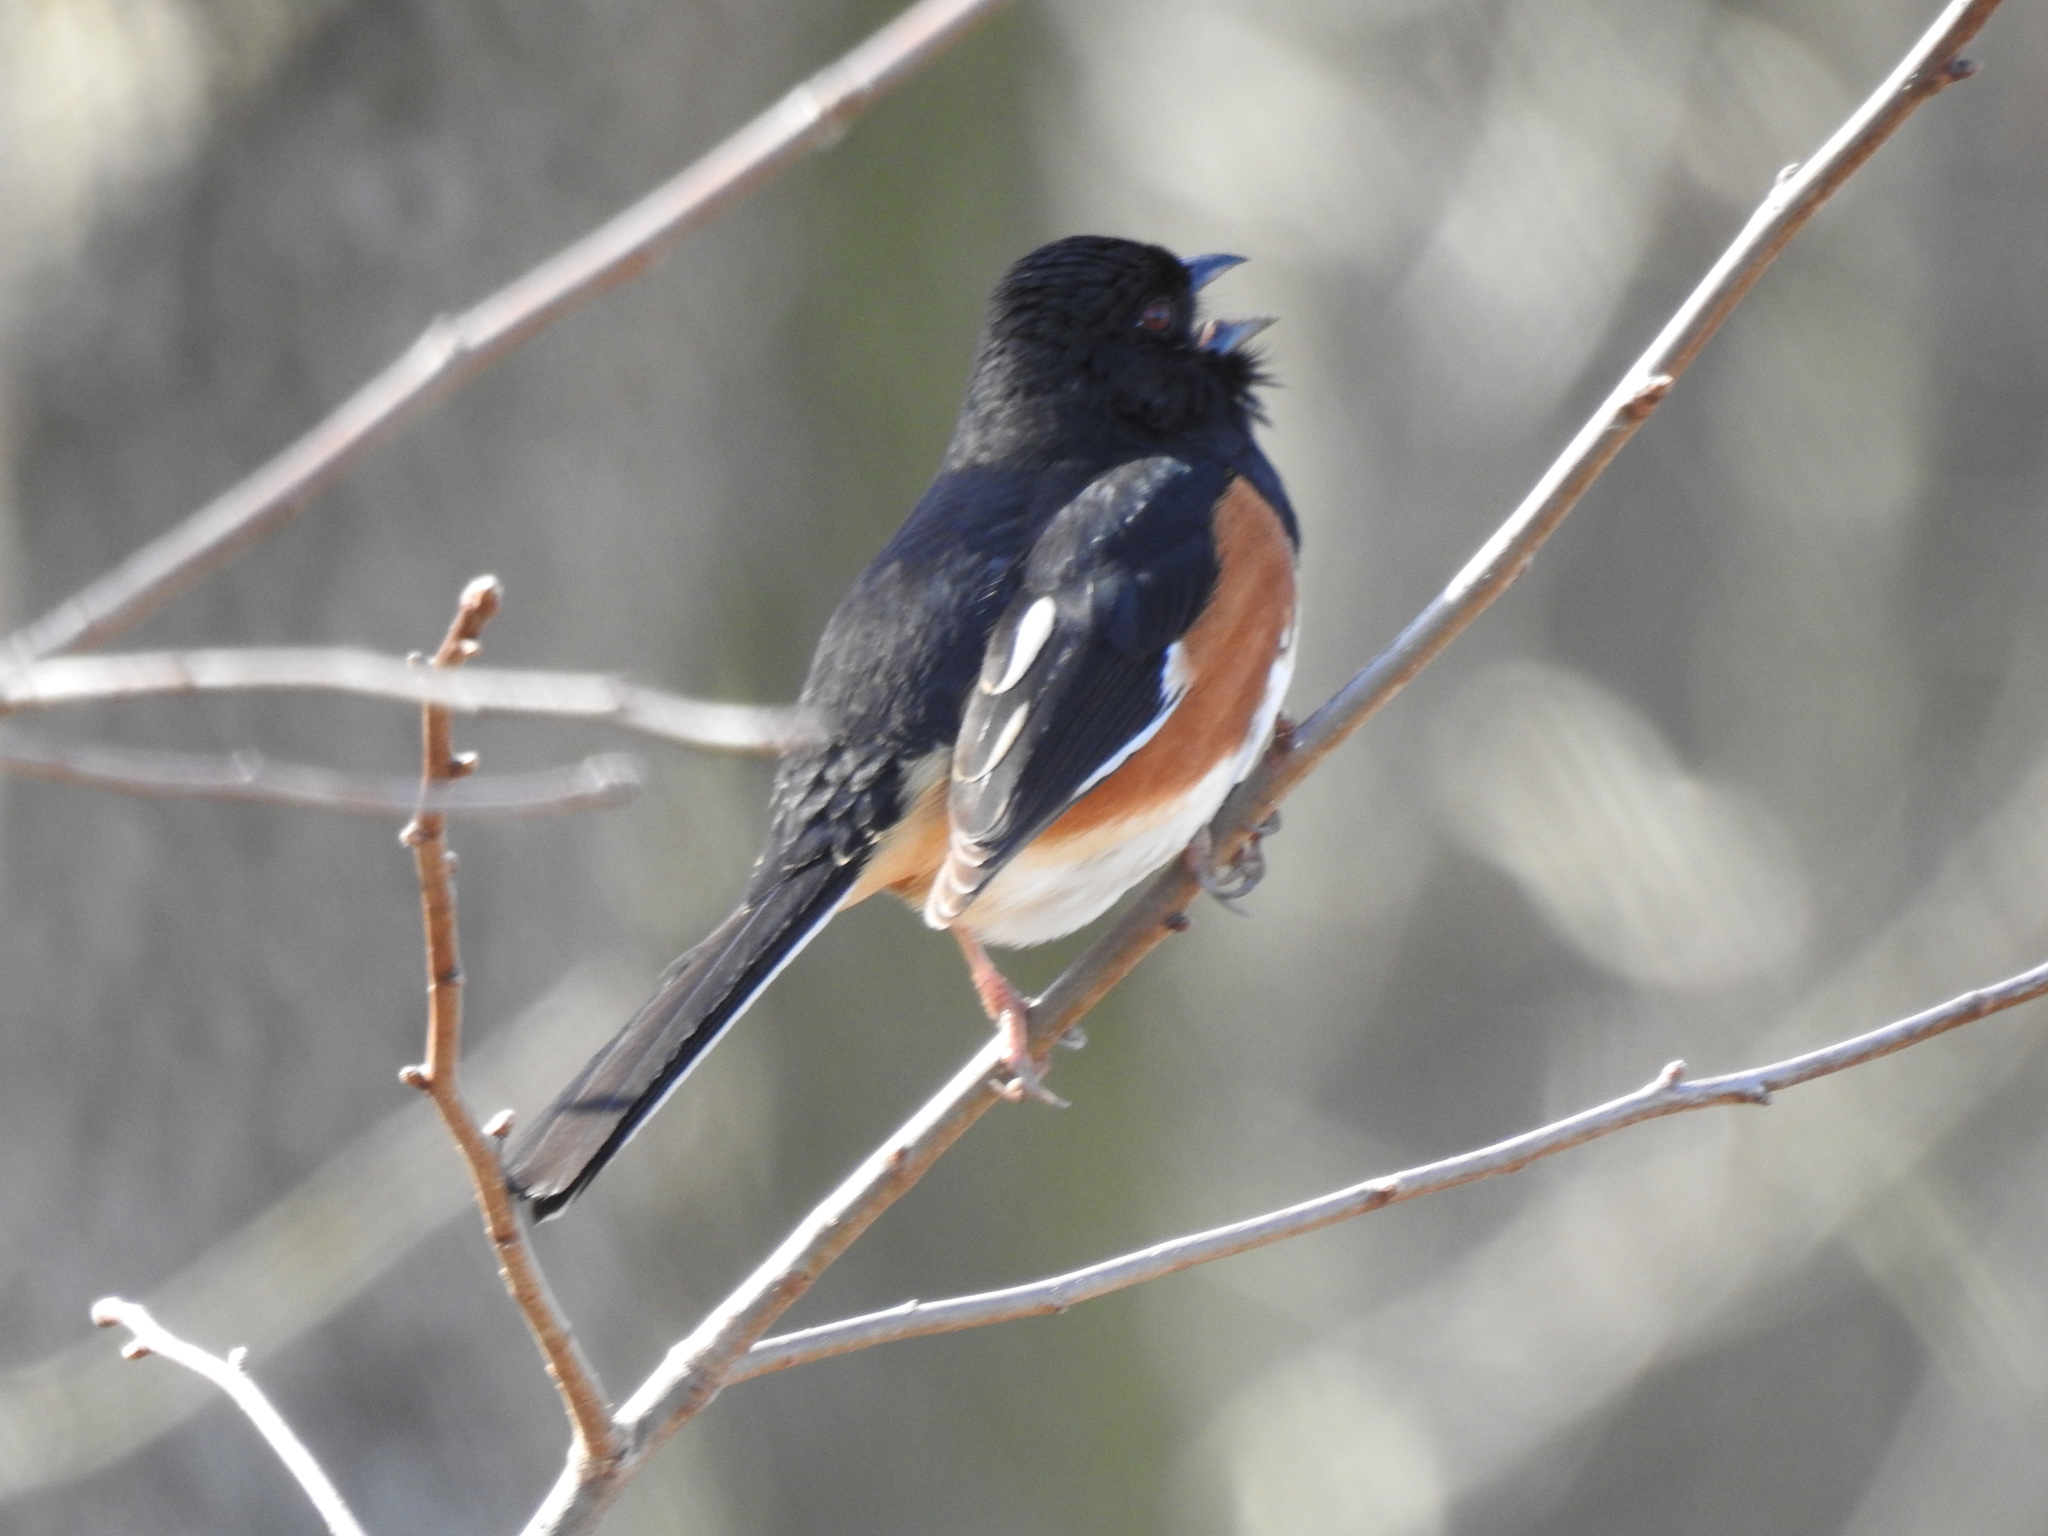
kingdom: Animalia
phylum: Chordata
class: Aves
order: Passeriformes
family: Passerellidae
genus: Pipilo
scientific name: Pipilo erythrophthalmus
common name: Eastern towhee
